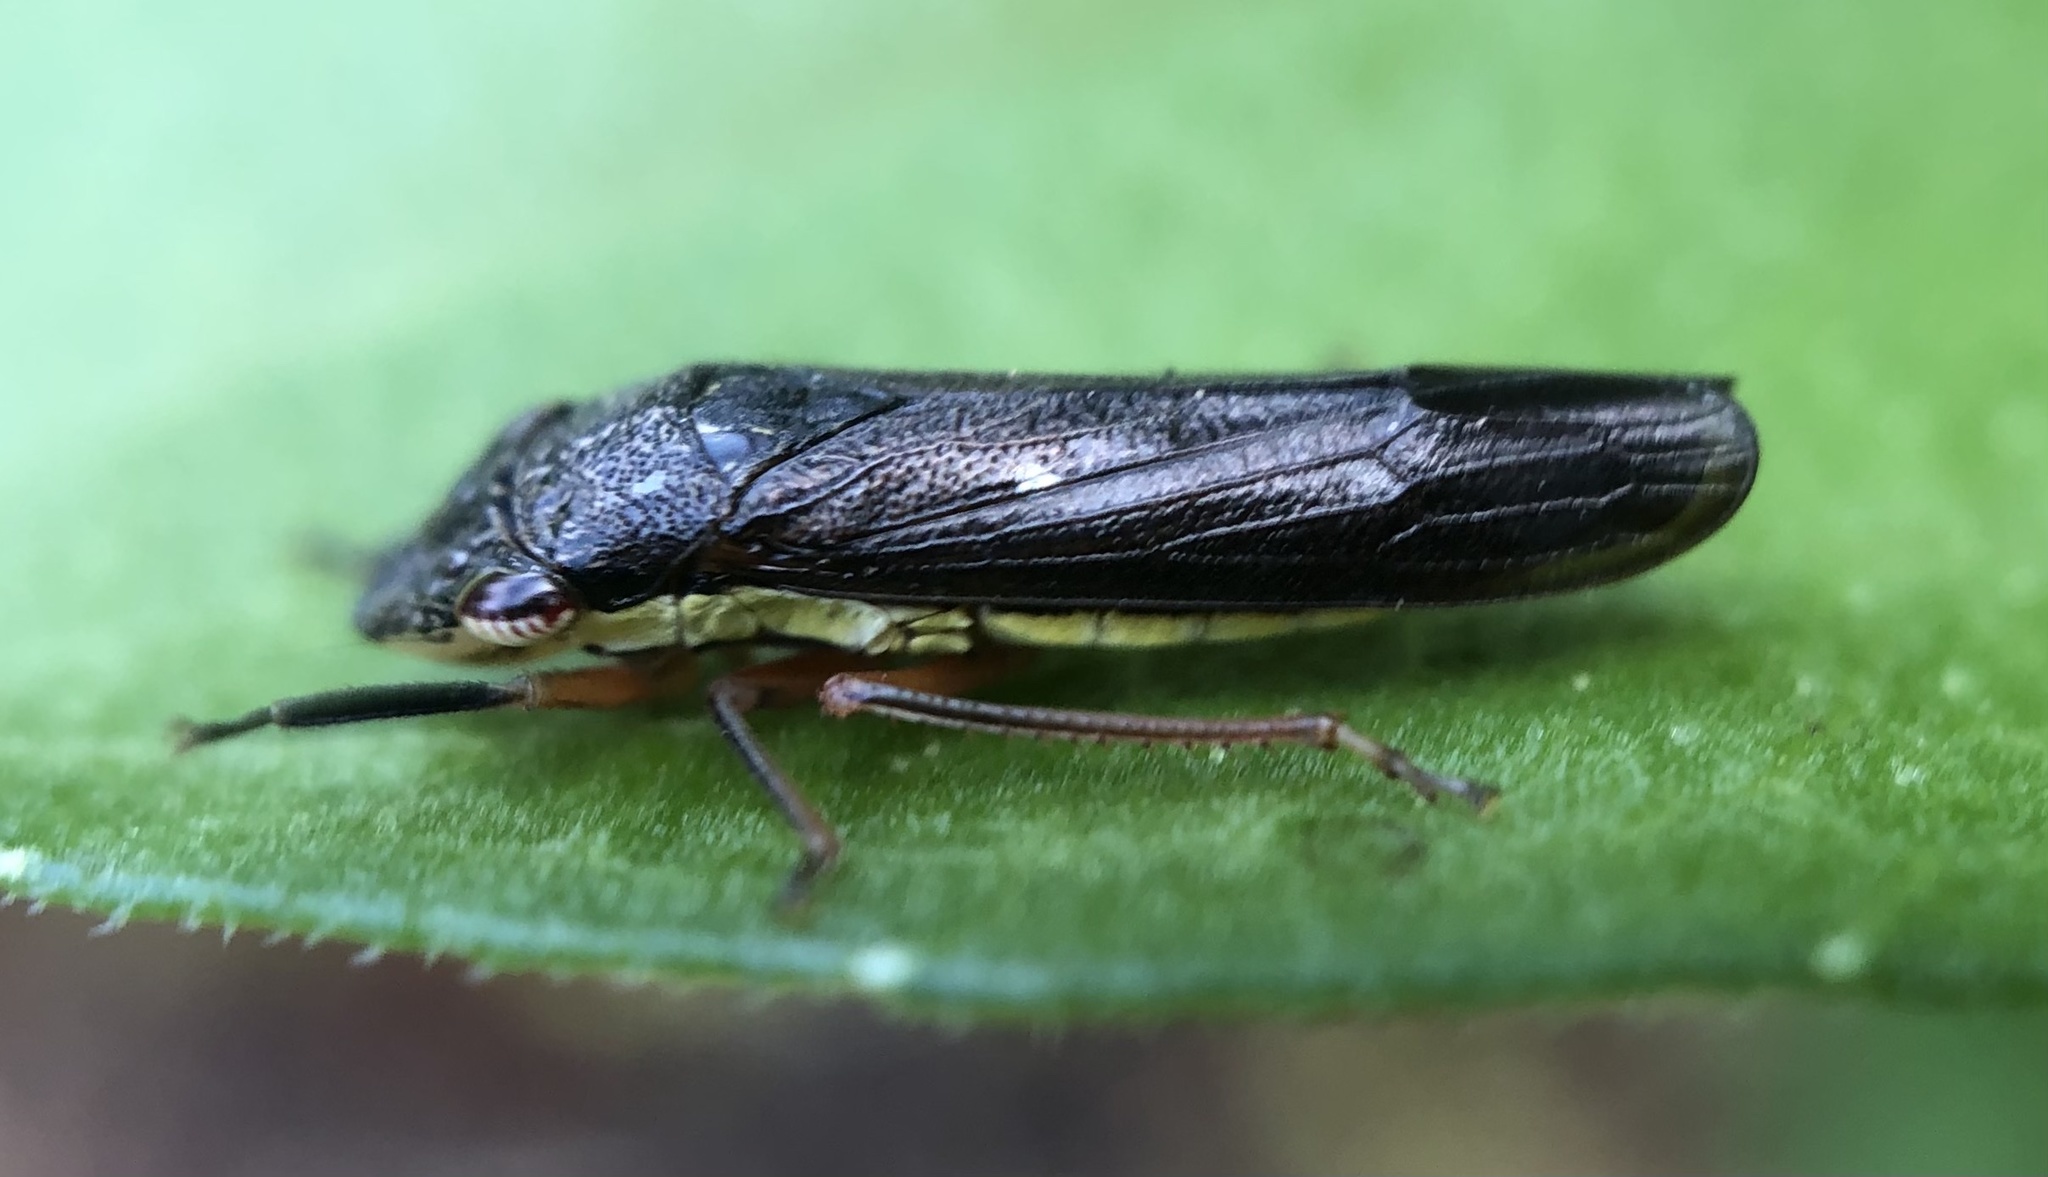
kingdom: Animalia
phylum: Arthropoda
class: Insecta
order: Hemiptera
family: Cicadellidae
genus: Homalodisca
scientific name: Homalodisca insolita
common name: Johnson grass sharpshooter
